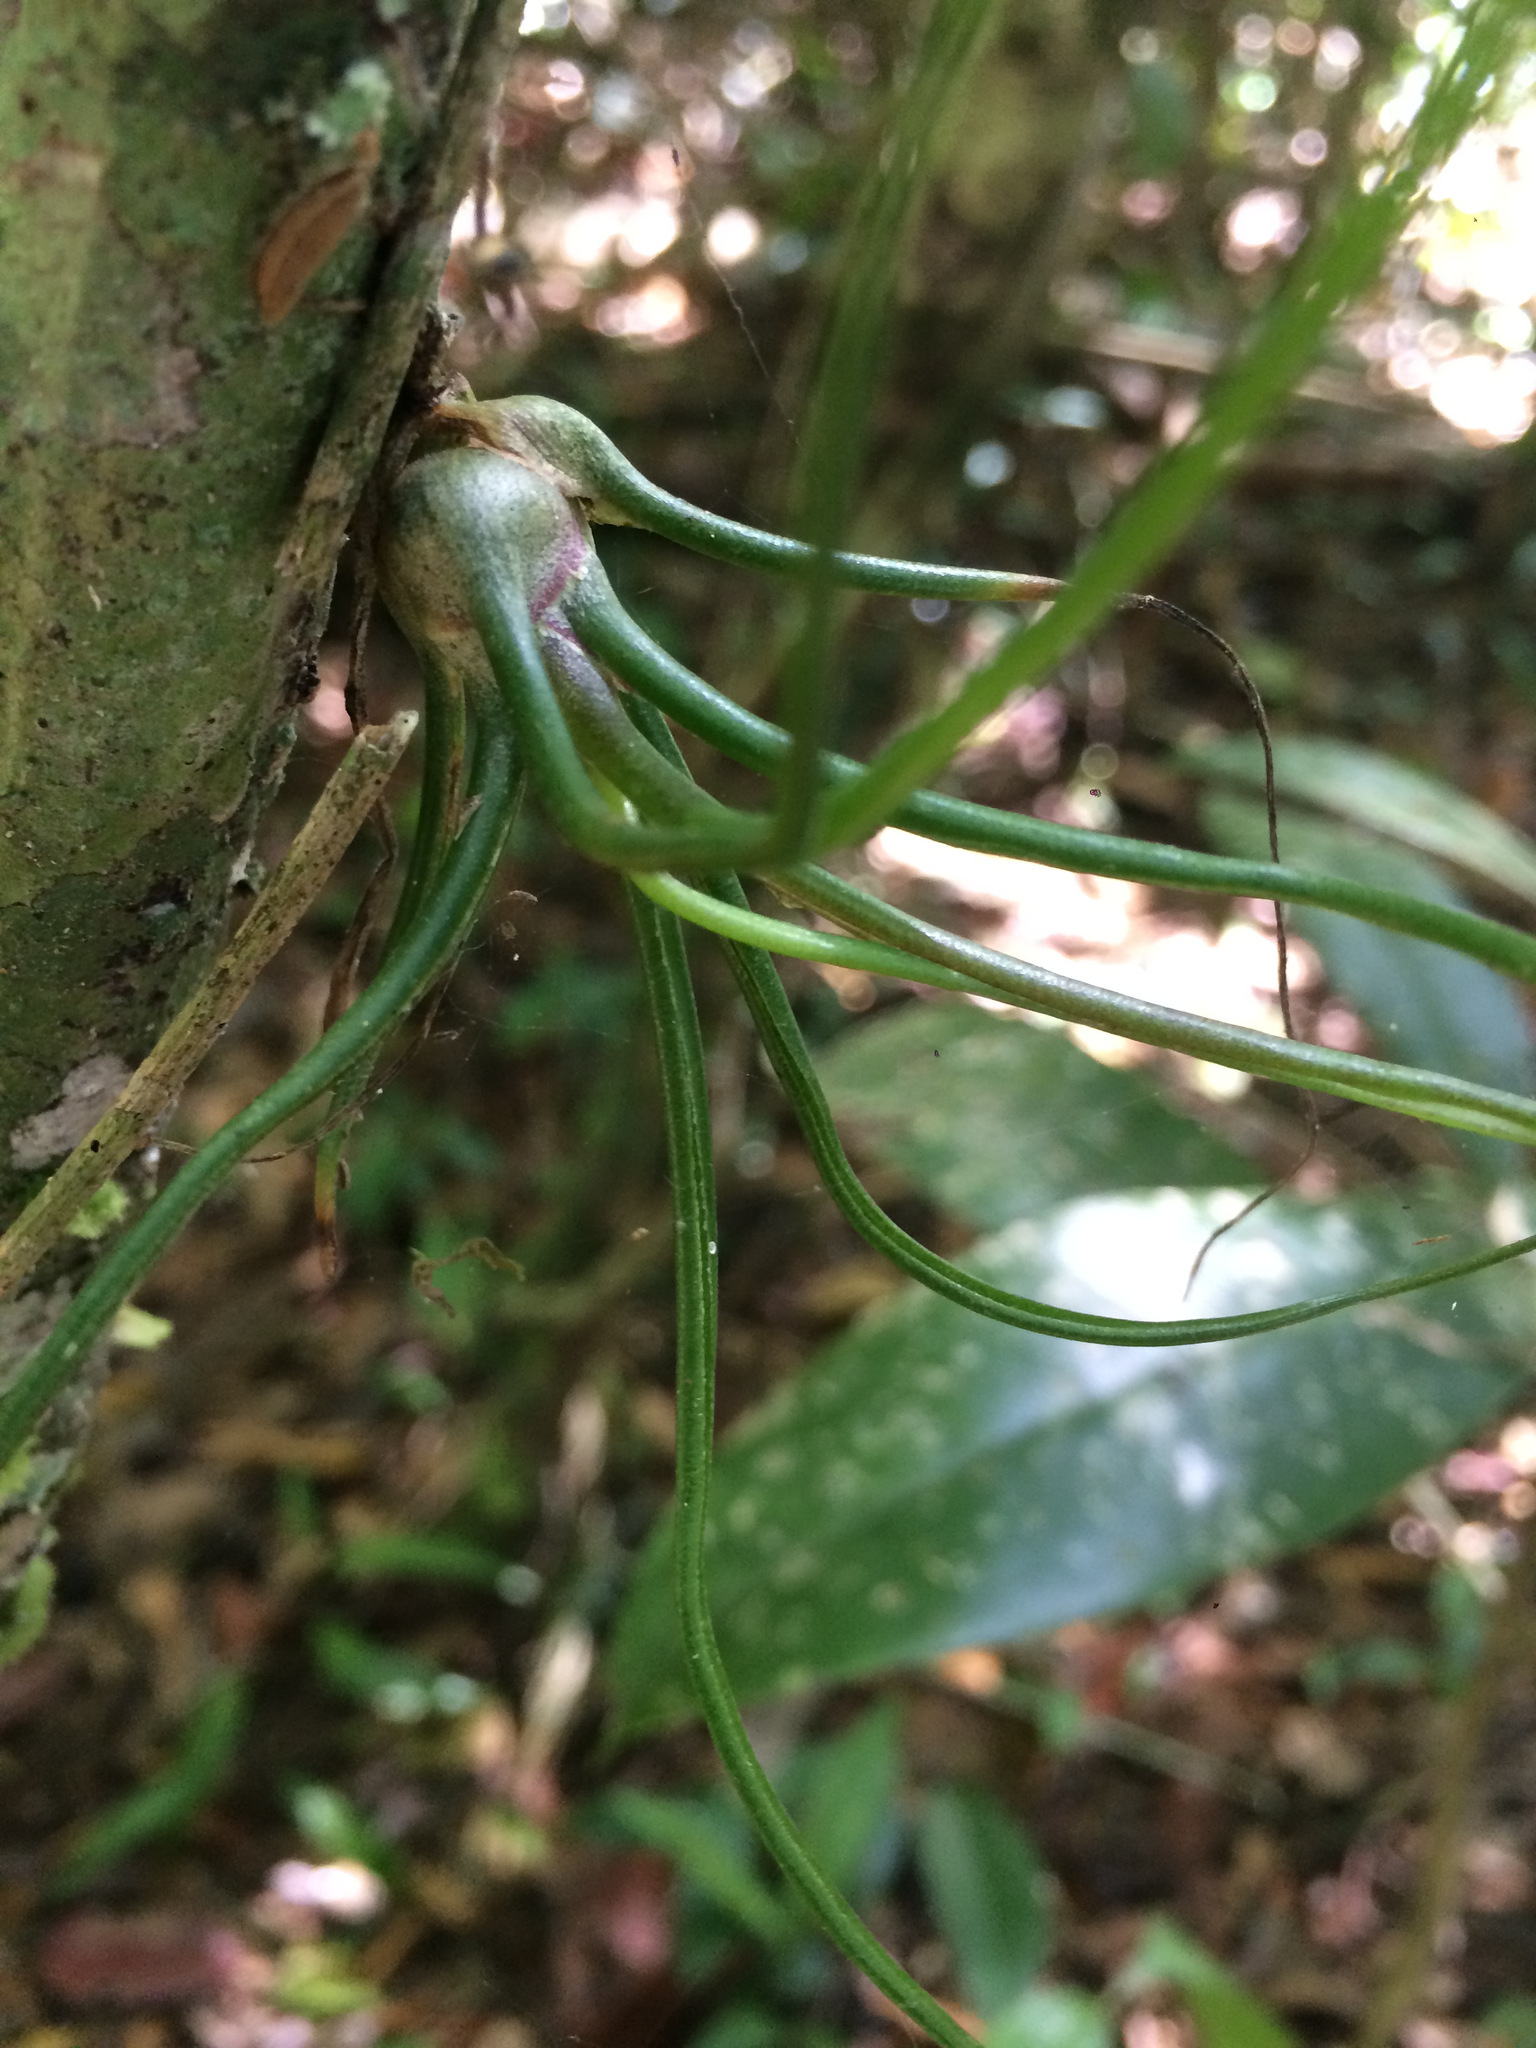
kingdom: Plantae
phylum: Tracheophyta
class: Liliopsida
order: Poales
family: Bromeliaceae
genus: Tillandsia
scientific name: Tillandsia bulbosa
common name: Bulbous airplant
